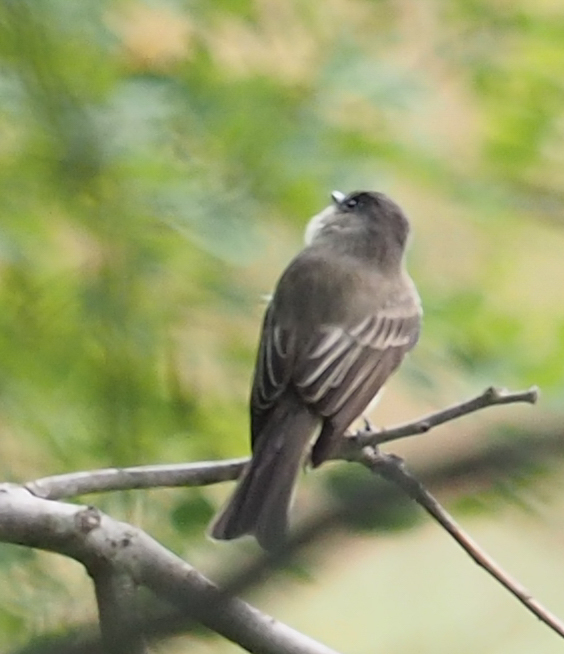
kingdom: Animalia
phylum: Chordata
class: Aves
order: Passeriformes
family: Tyrannidae
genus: Sayornis
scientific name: Sayornis phoebe
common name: Eastern phoebe
